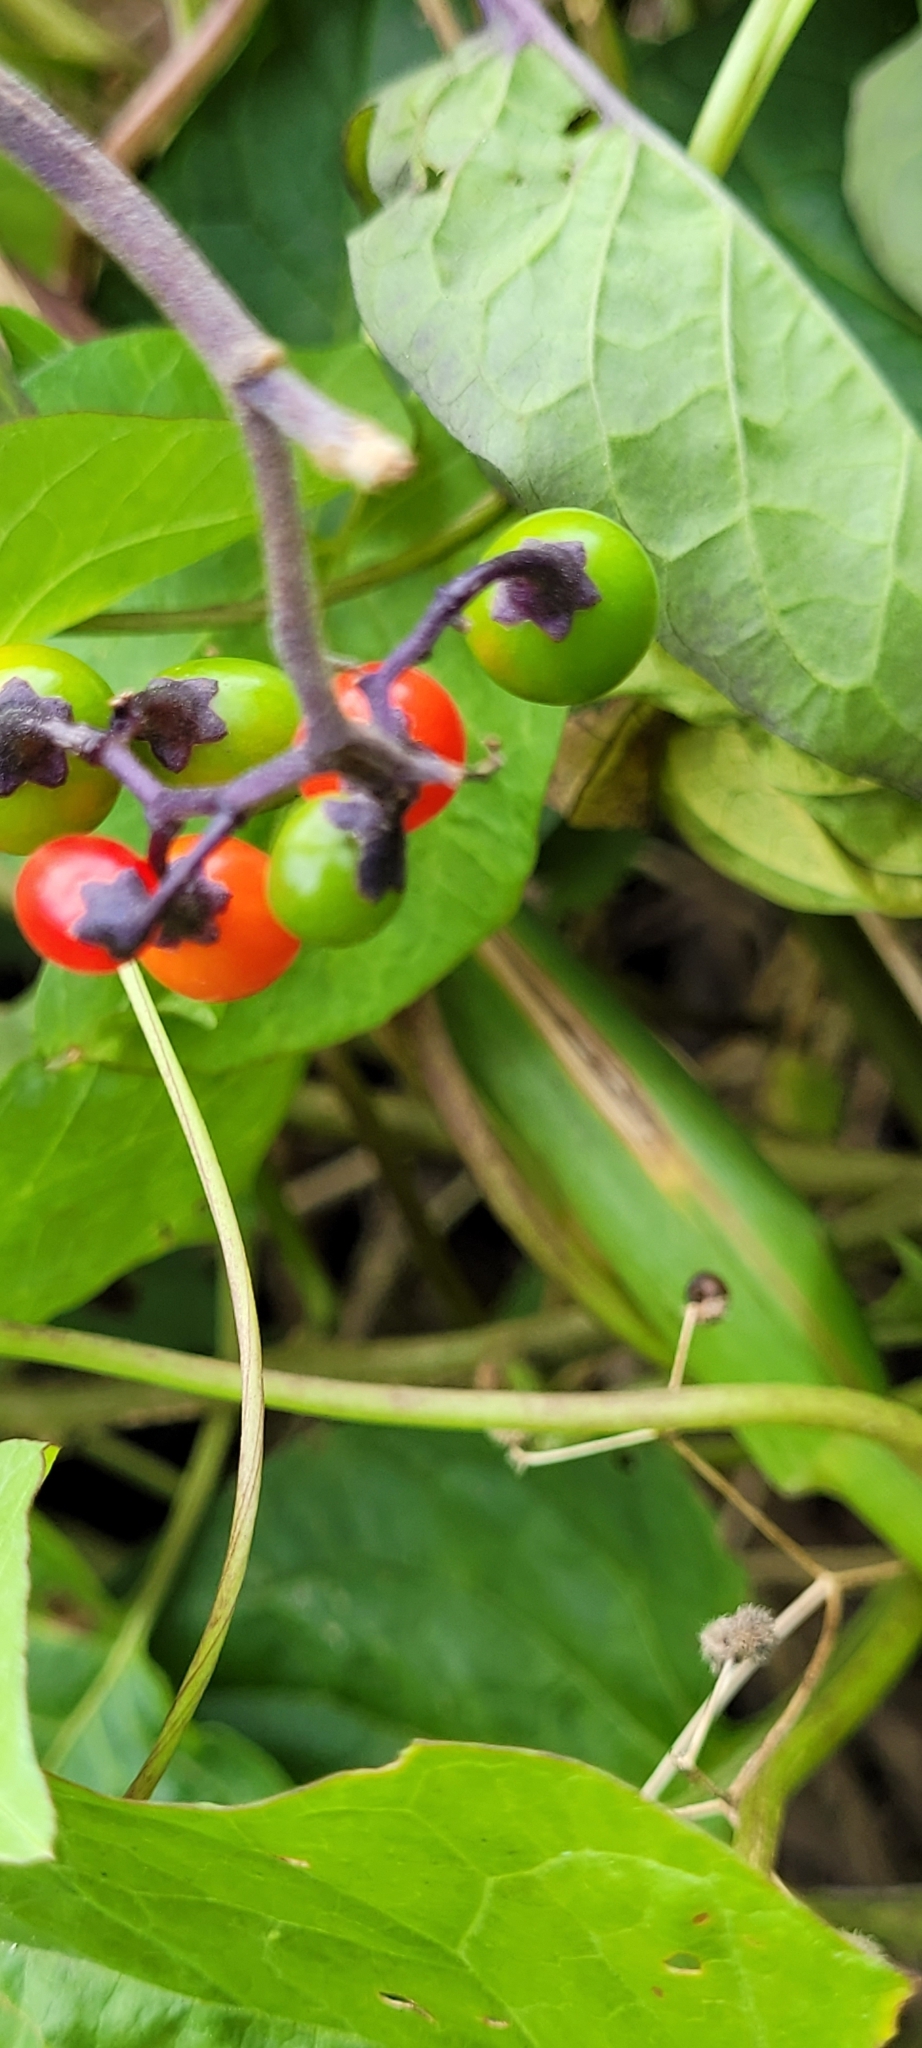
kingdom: Plantae
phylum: Tracheophyta
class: Magnoliopsida
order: Solanales
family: Solanaceae
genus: Solanum
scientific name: Solanum dulcamara
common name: Climbing nightshade
